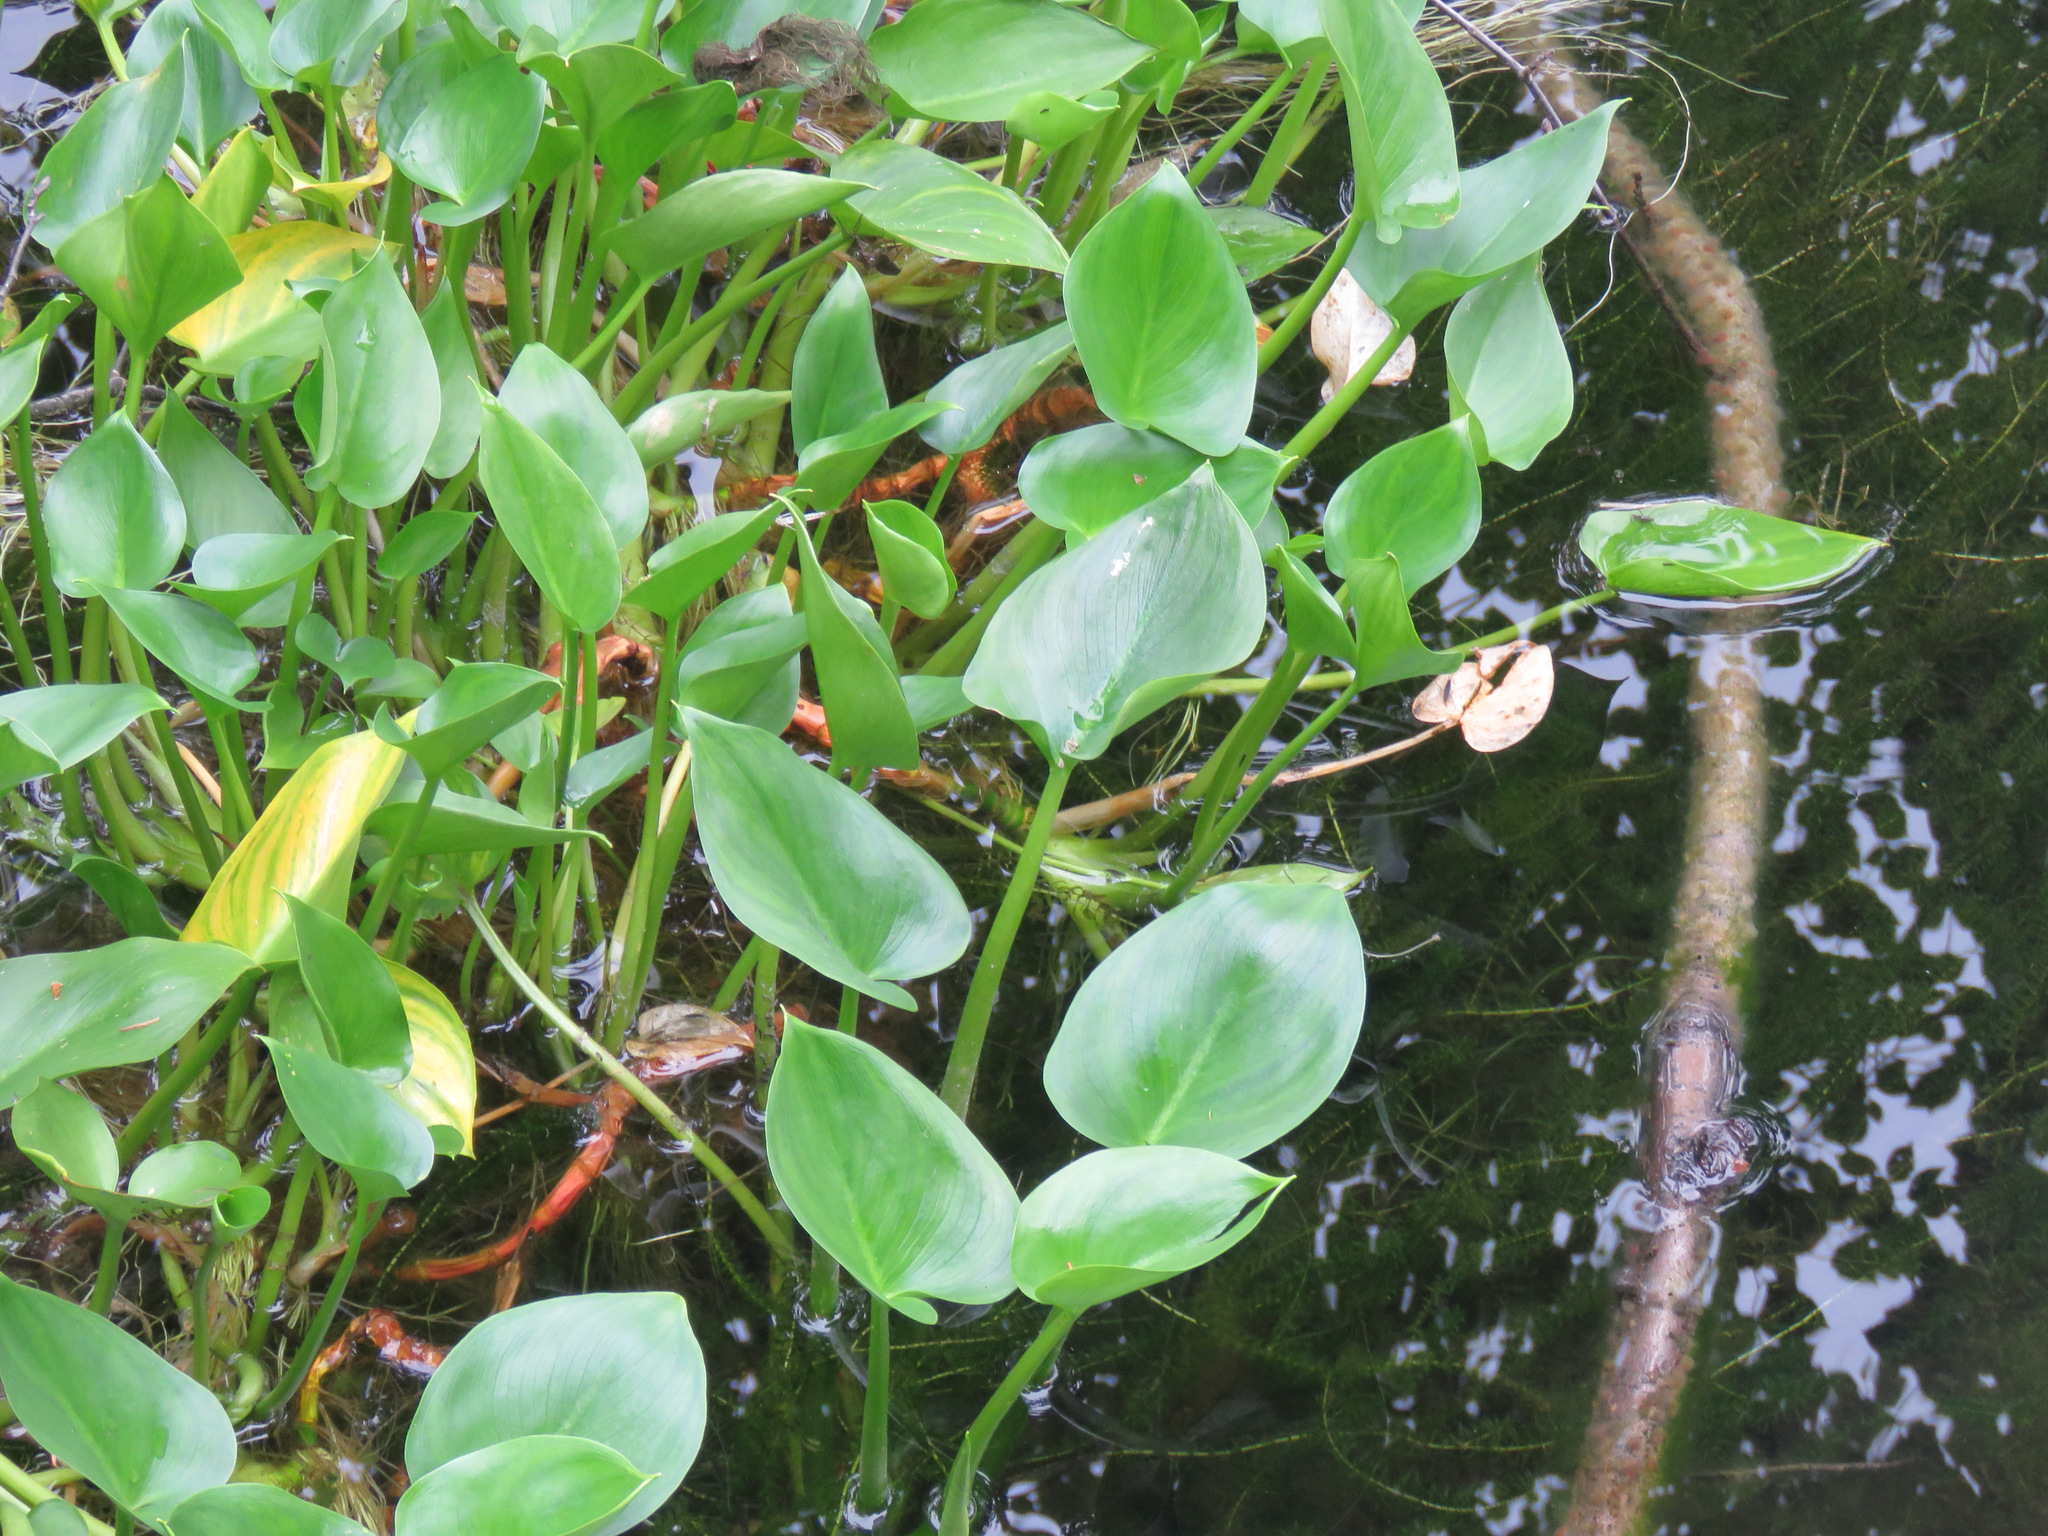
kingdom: Plantae
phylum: Tracheophyta
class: Liliopsida
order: Alismatales
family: Araceae
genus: Calla
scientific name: Calla palustris
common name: Bog arum
